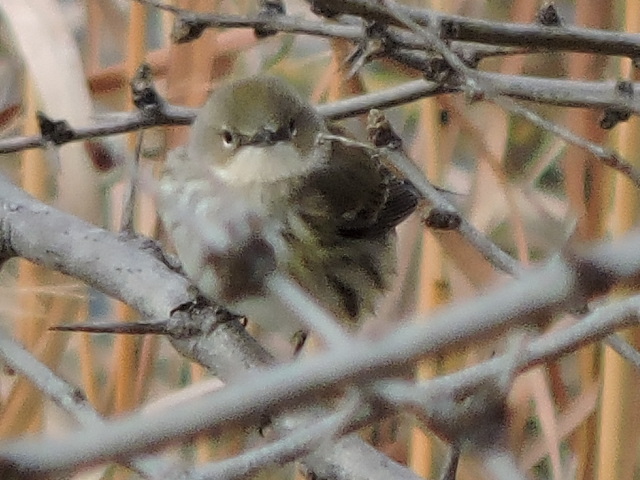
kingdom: Animalia
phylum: Chordata
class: Aves
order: Passeriformes
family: Parulidae
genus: Setophaga
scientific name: Setophaga coronata
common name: Myrtle warbler
